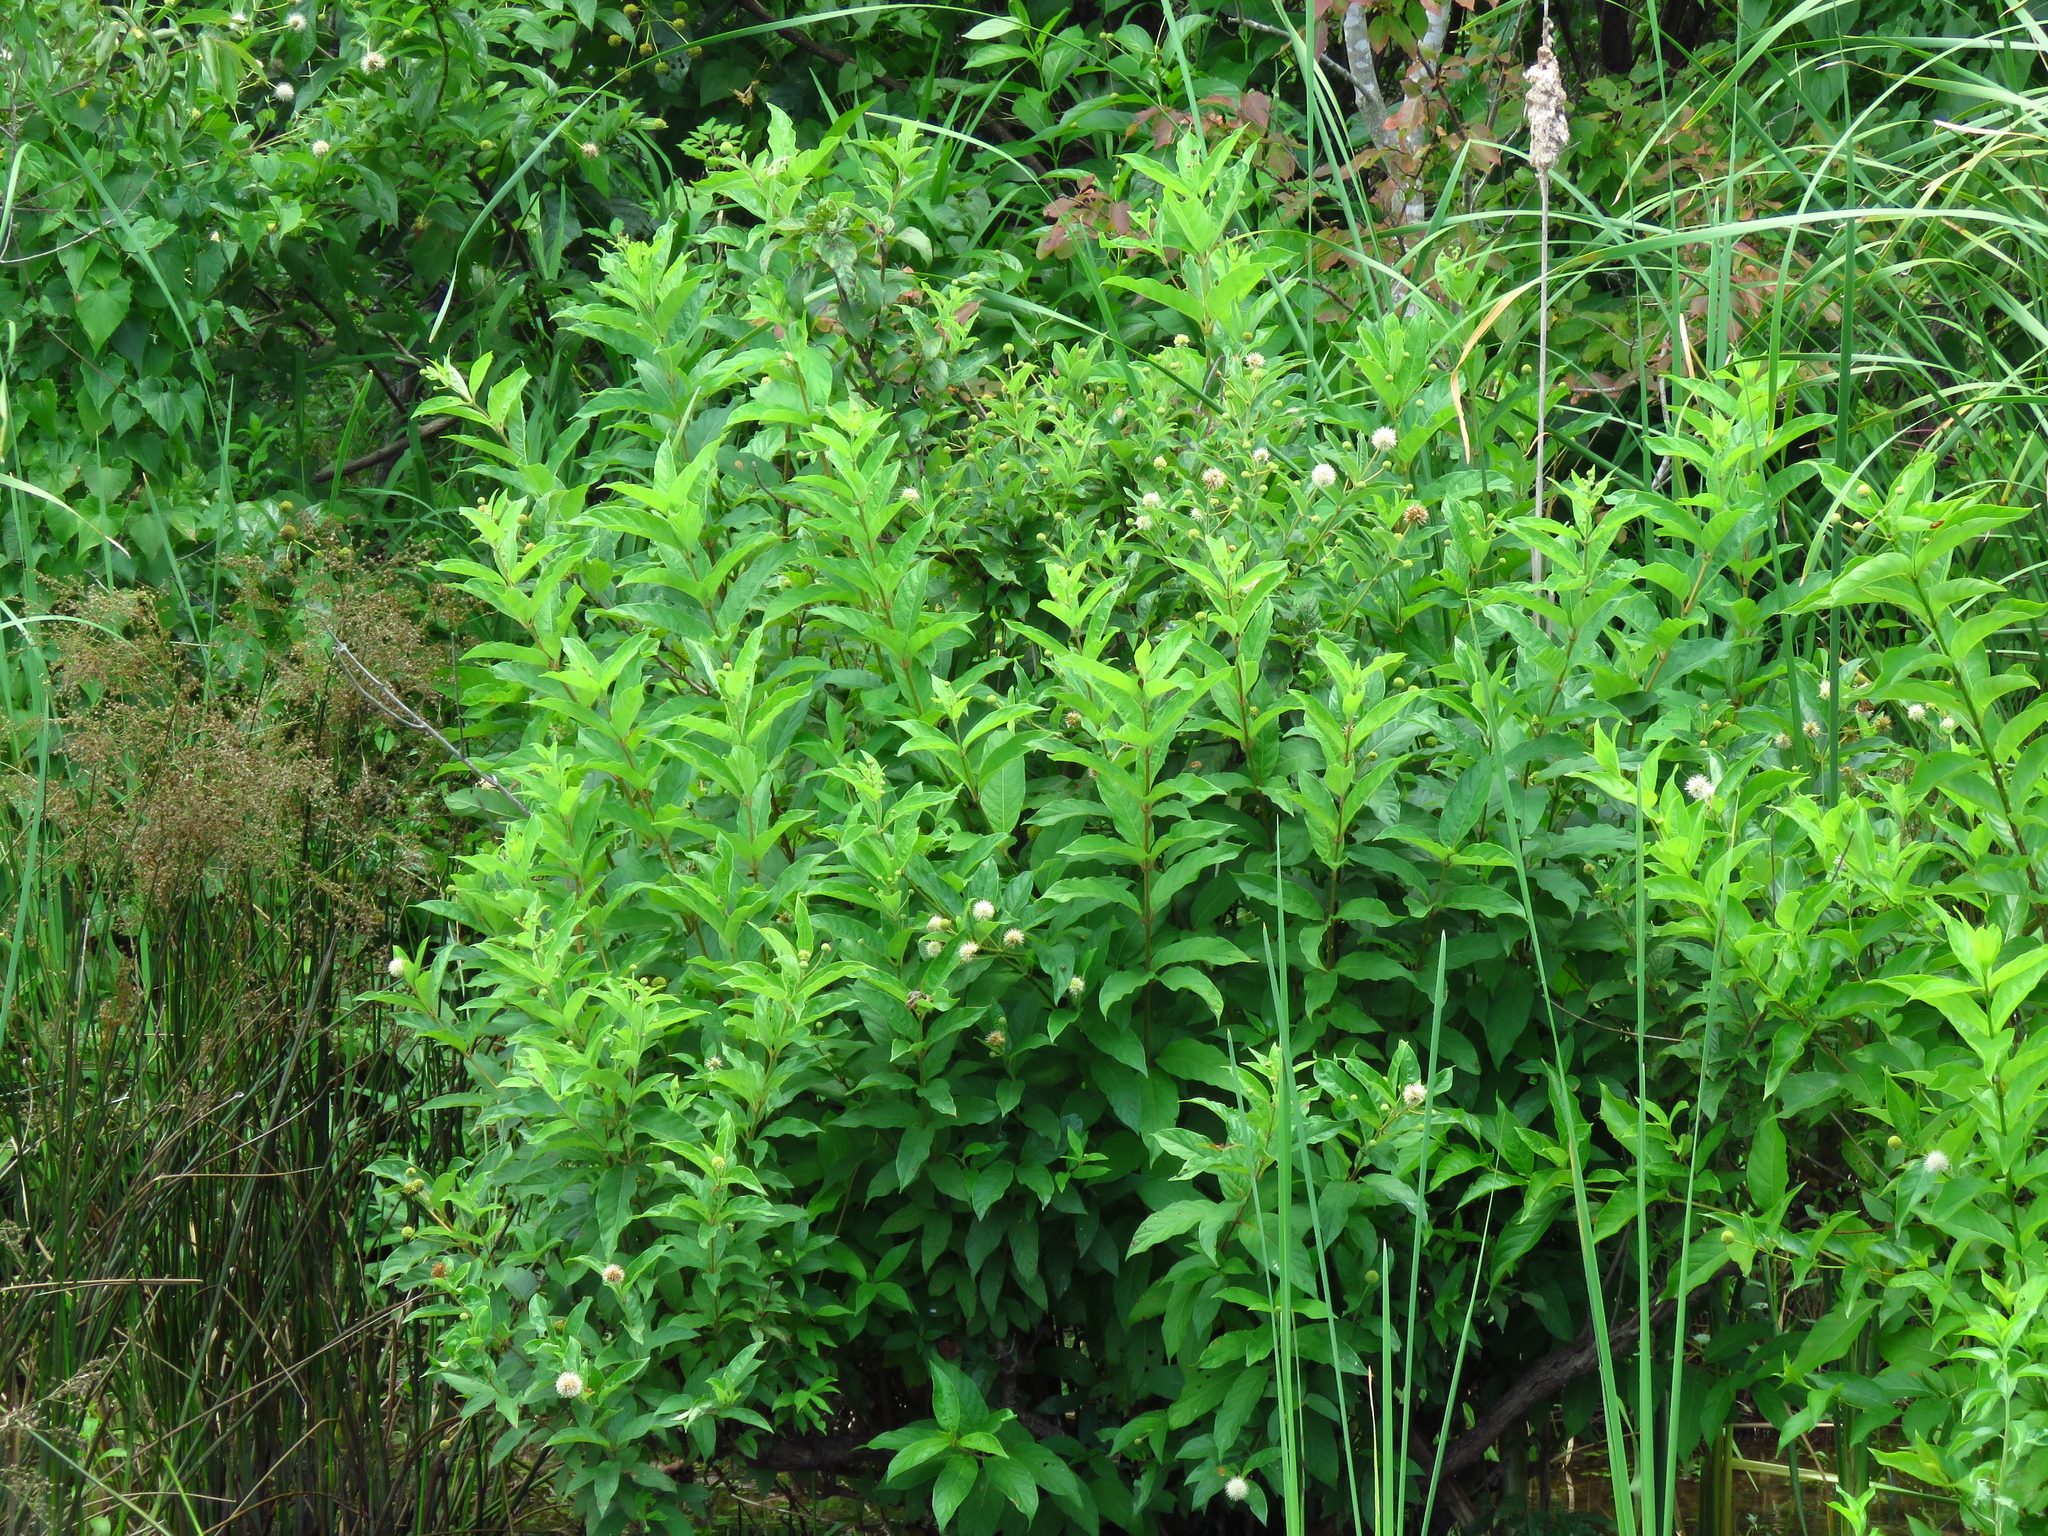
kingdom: Plantae
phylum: Tracheophyta
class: Magnoliopsida
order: Gentianales
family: Rubiaceae
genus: Cephalanthus
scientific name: Cephalanthus occidentalis
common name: Button-willow
